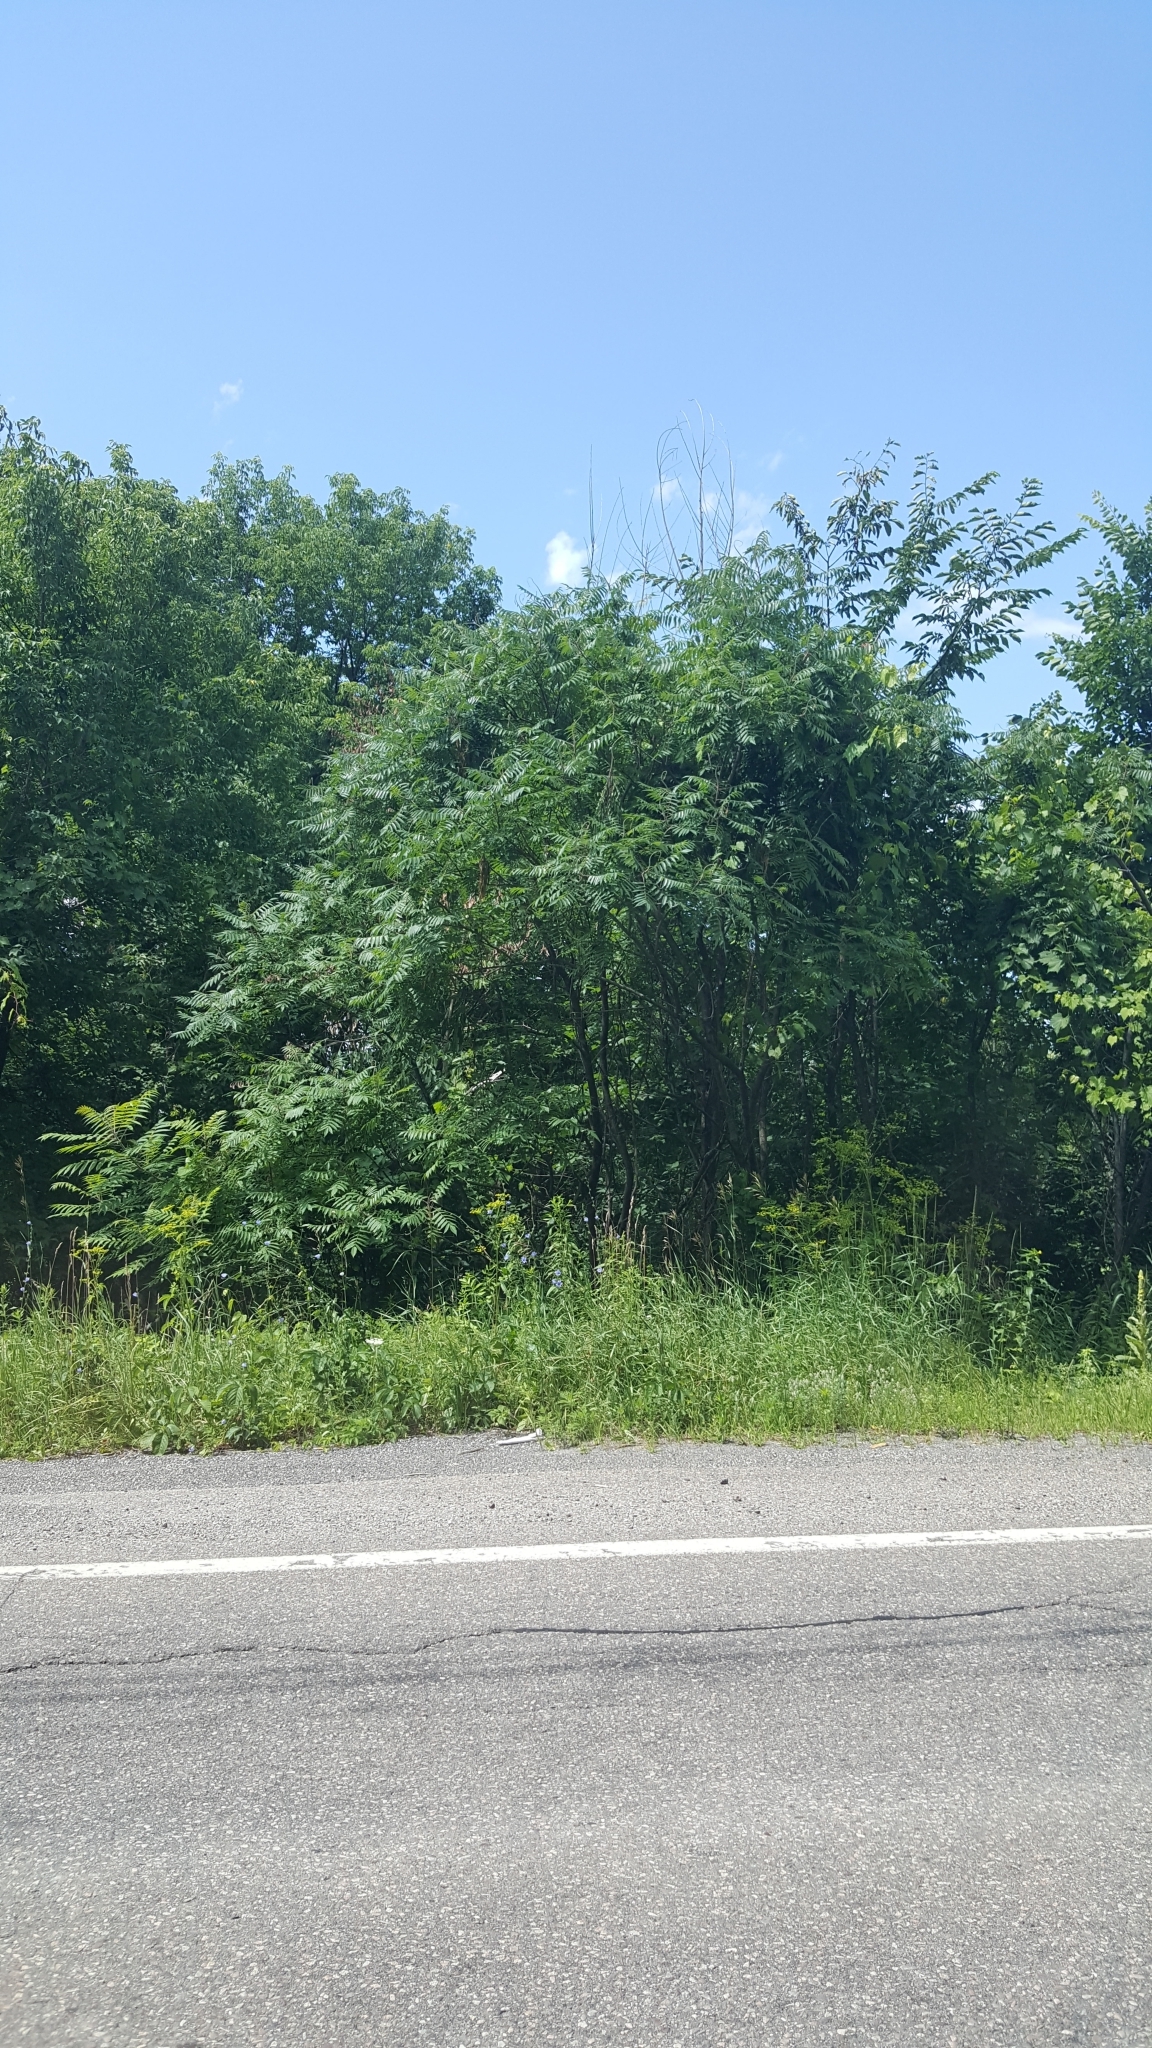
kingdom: Plantae
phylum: Tracheophyta
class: Magnoliopsida
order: Sapindales
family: Anacardiaceae
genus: Rhus
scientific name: Rhus typhina
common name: Staghorn sumac
